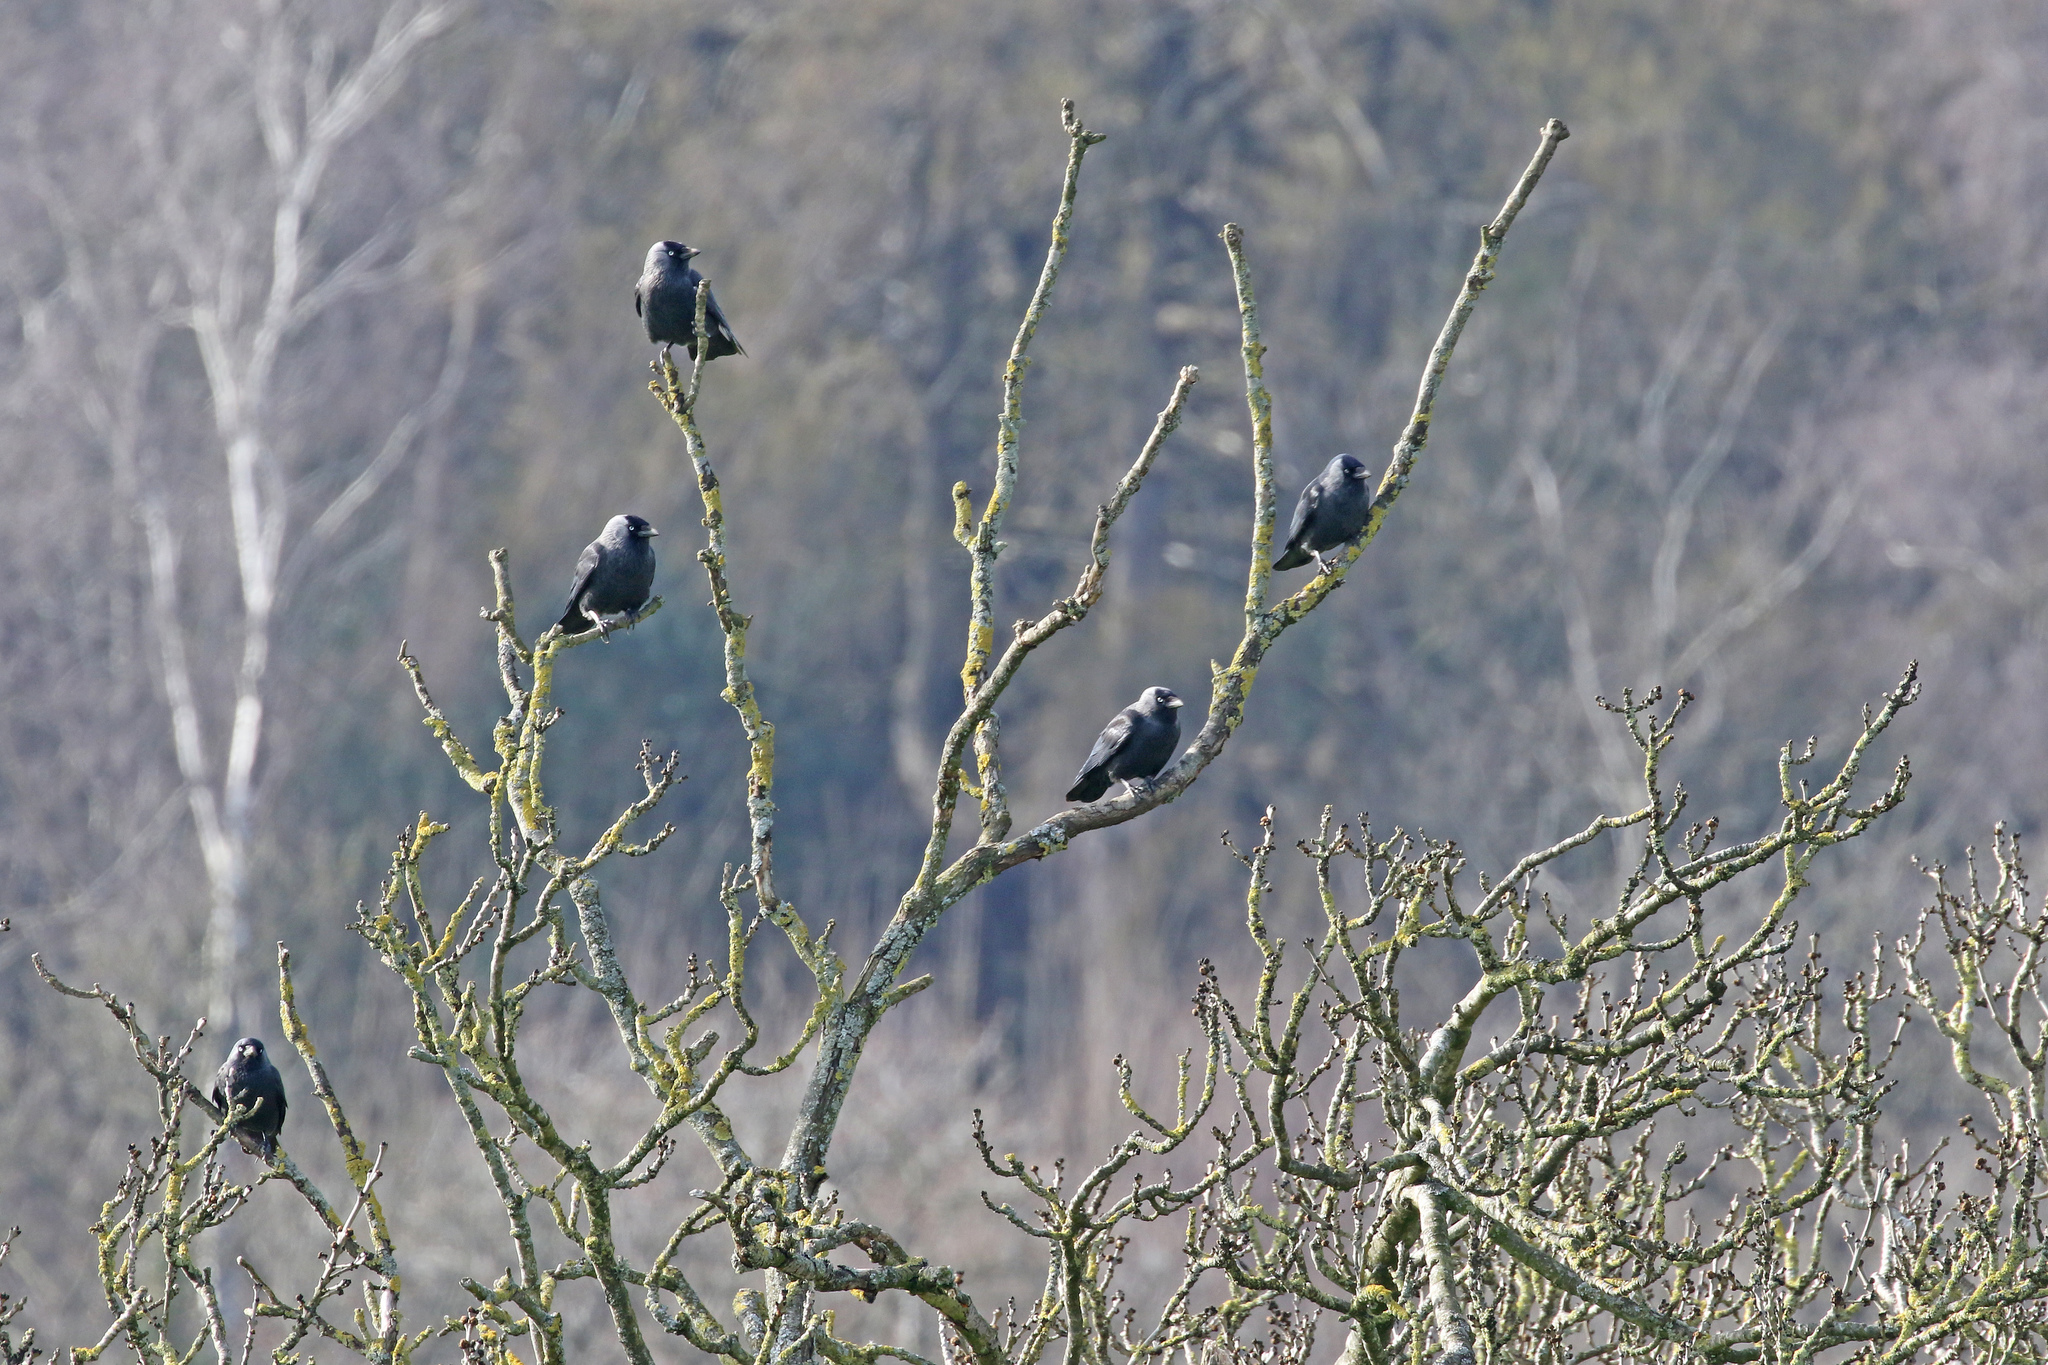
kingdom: Animalia
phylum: Chordata
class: Aves
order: Passeriformes
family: Corvidae
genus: Coloeus
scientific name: Coloeus monedula
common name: Western jackdaw
